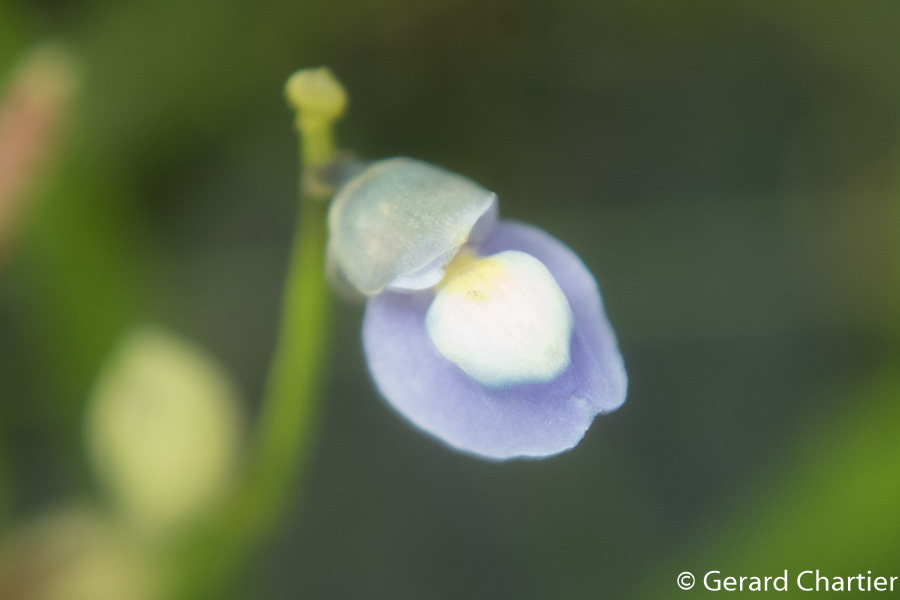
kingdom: Plantae
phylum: Tracheophyta
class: Magnoliopsida
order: Lamiales
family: Lentibulariaceae
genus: Utricularia
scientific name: Utricularia uliginosa
